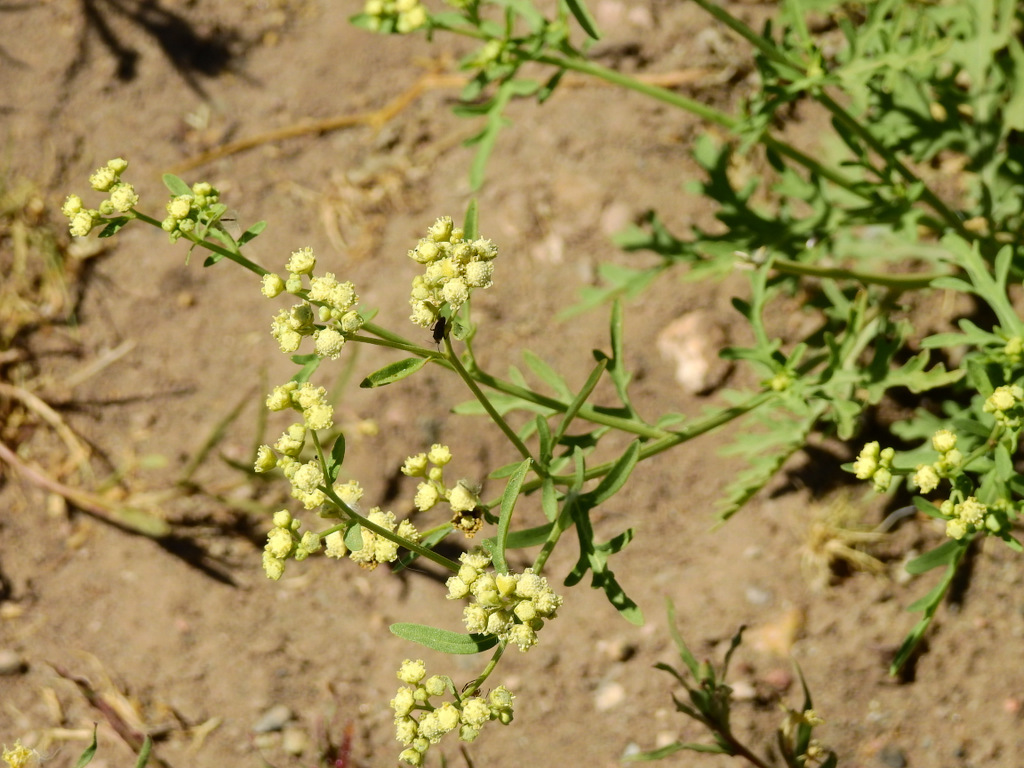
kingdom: Plantae
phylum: Tracheophyta
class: Magnoliopsida
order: Asterales
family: Asteraceae
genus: Parthenium
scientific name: Parthenium hysterophorus
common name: Santa maria feverfew
